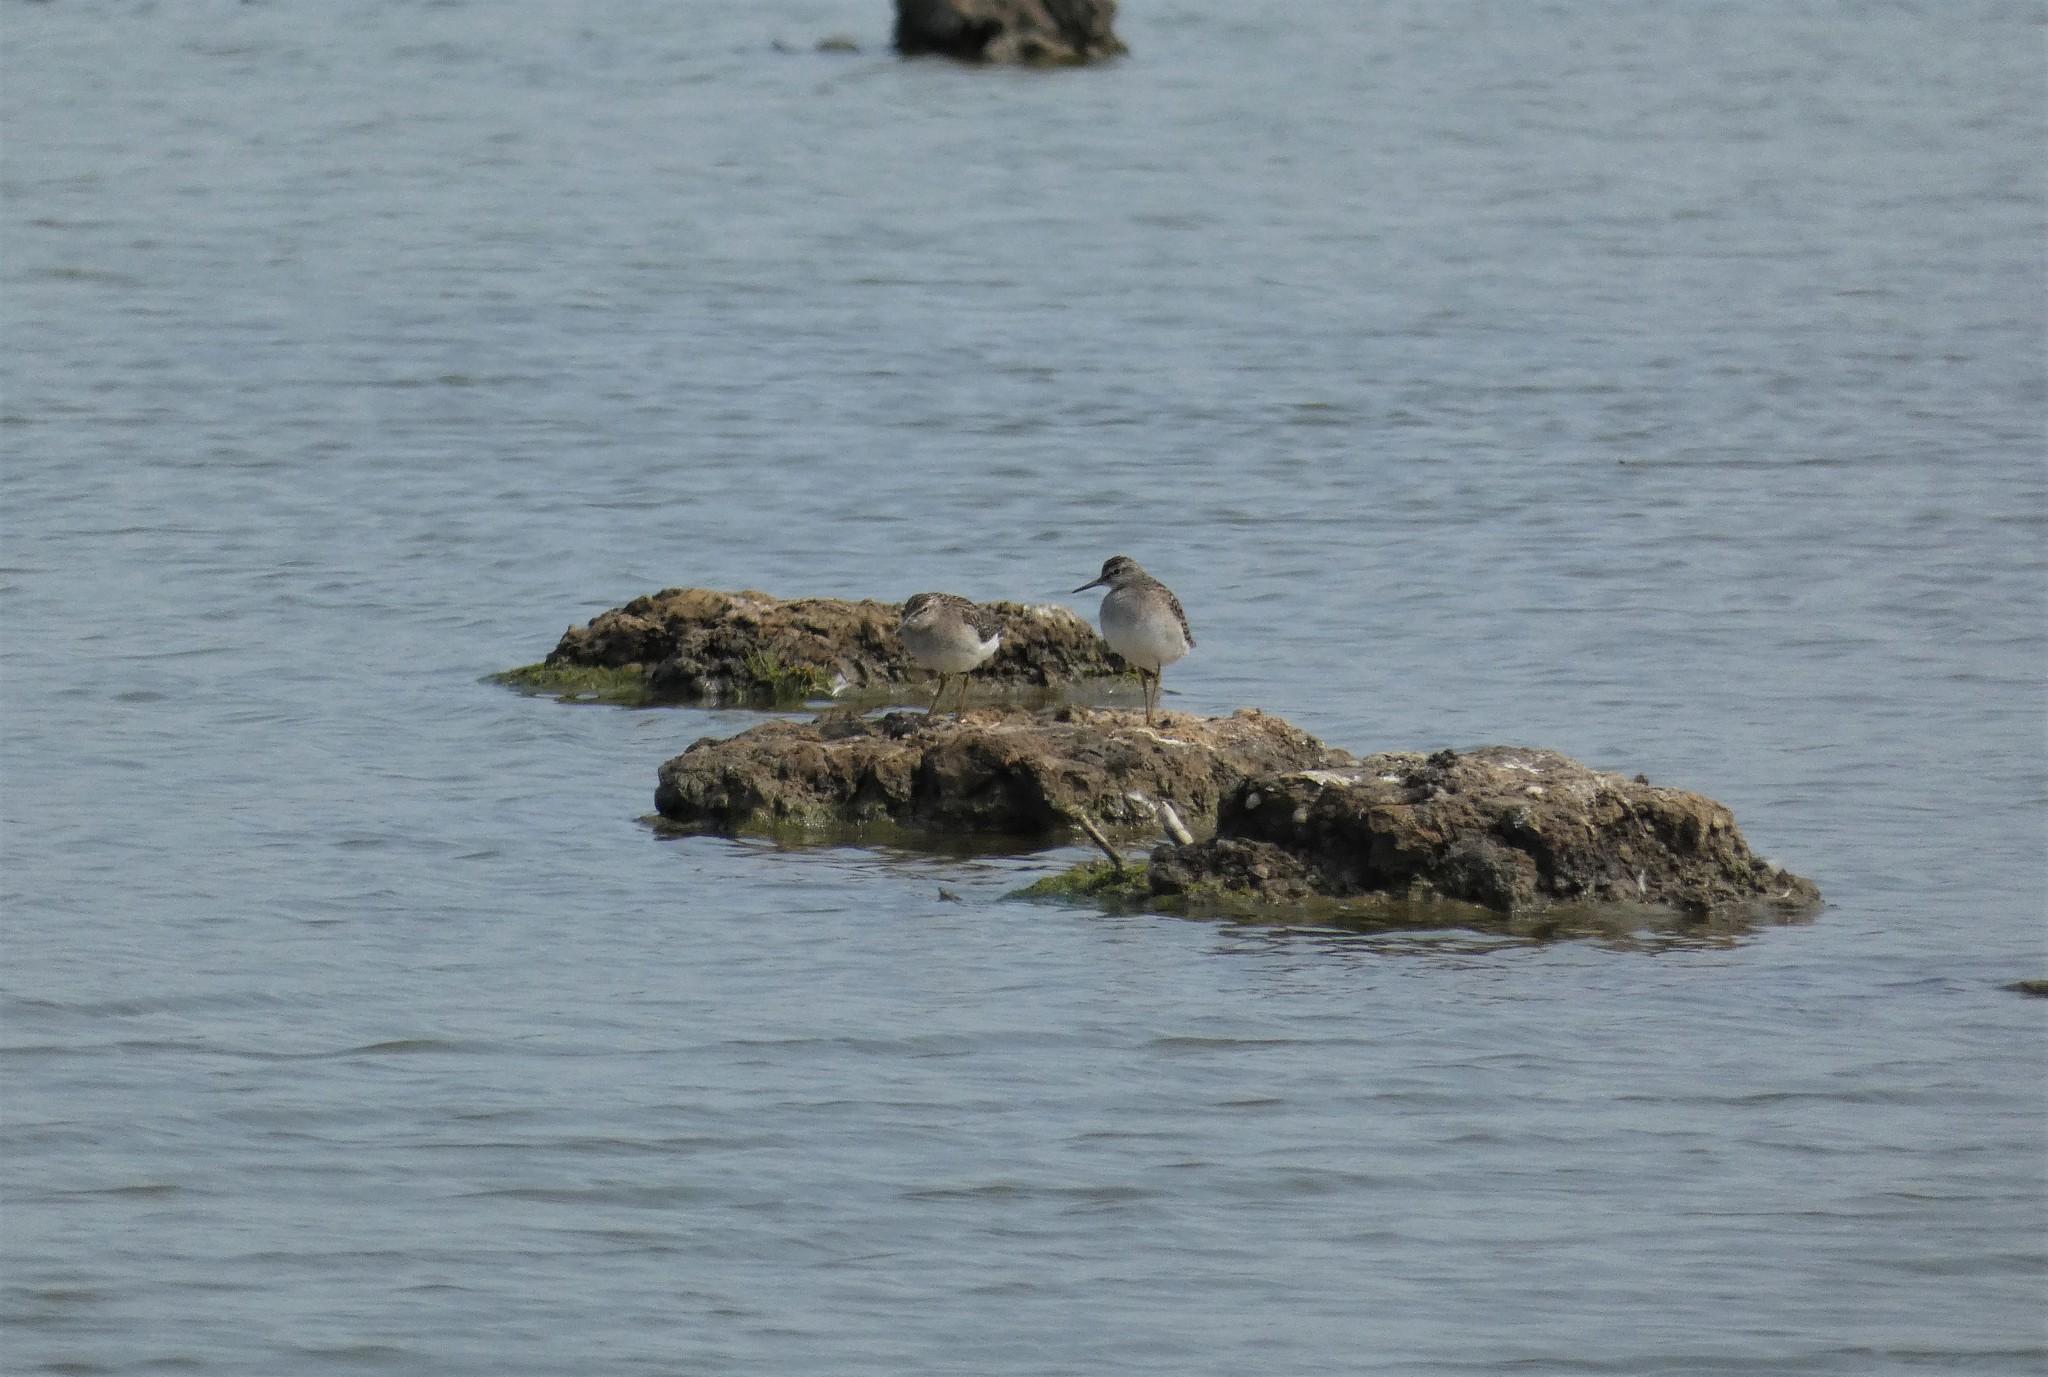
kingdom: Animalia
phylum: Chordata
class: Aves
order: Charadriiformes
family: Scolopacidae
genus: Tringa
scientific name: Tringa glareola
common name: Wood sandpiper
